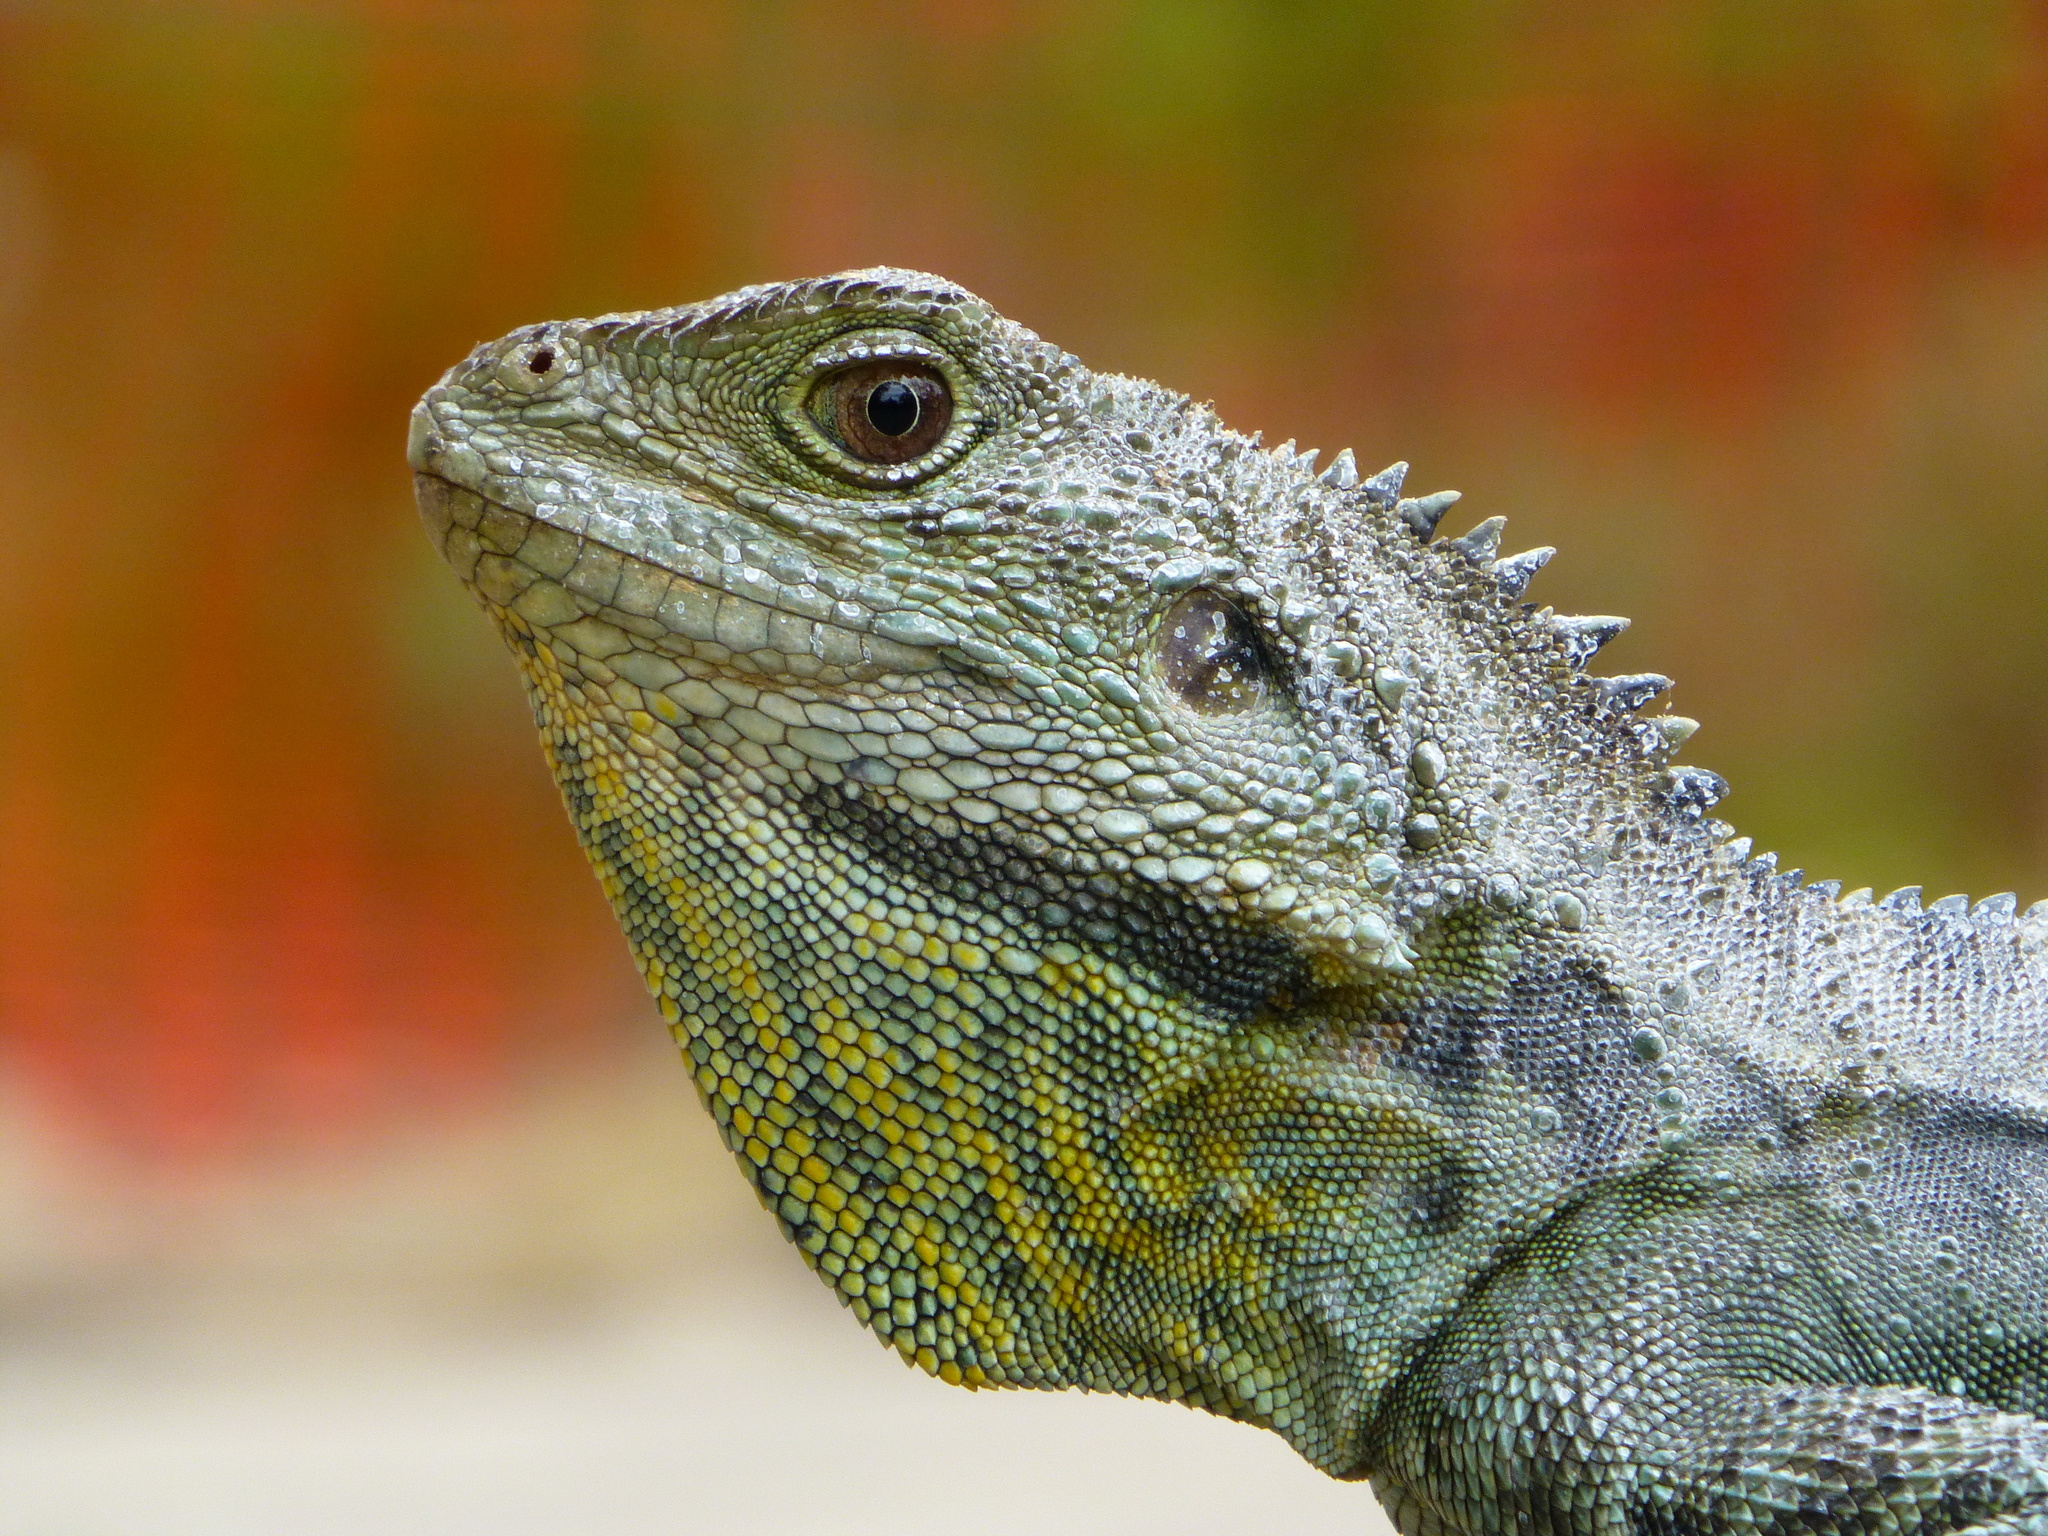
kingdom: Animalia
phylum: Chordata
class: Squamata
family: Agamidae
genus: Intellagama
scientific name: Intellagama lesueurii
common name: Eastern water dragon
